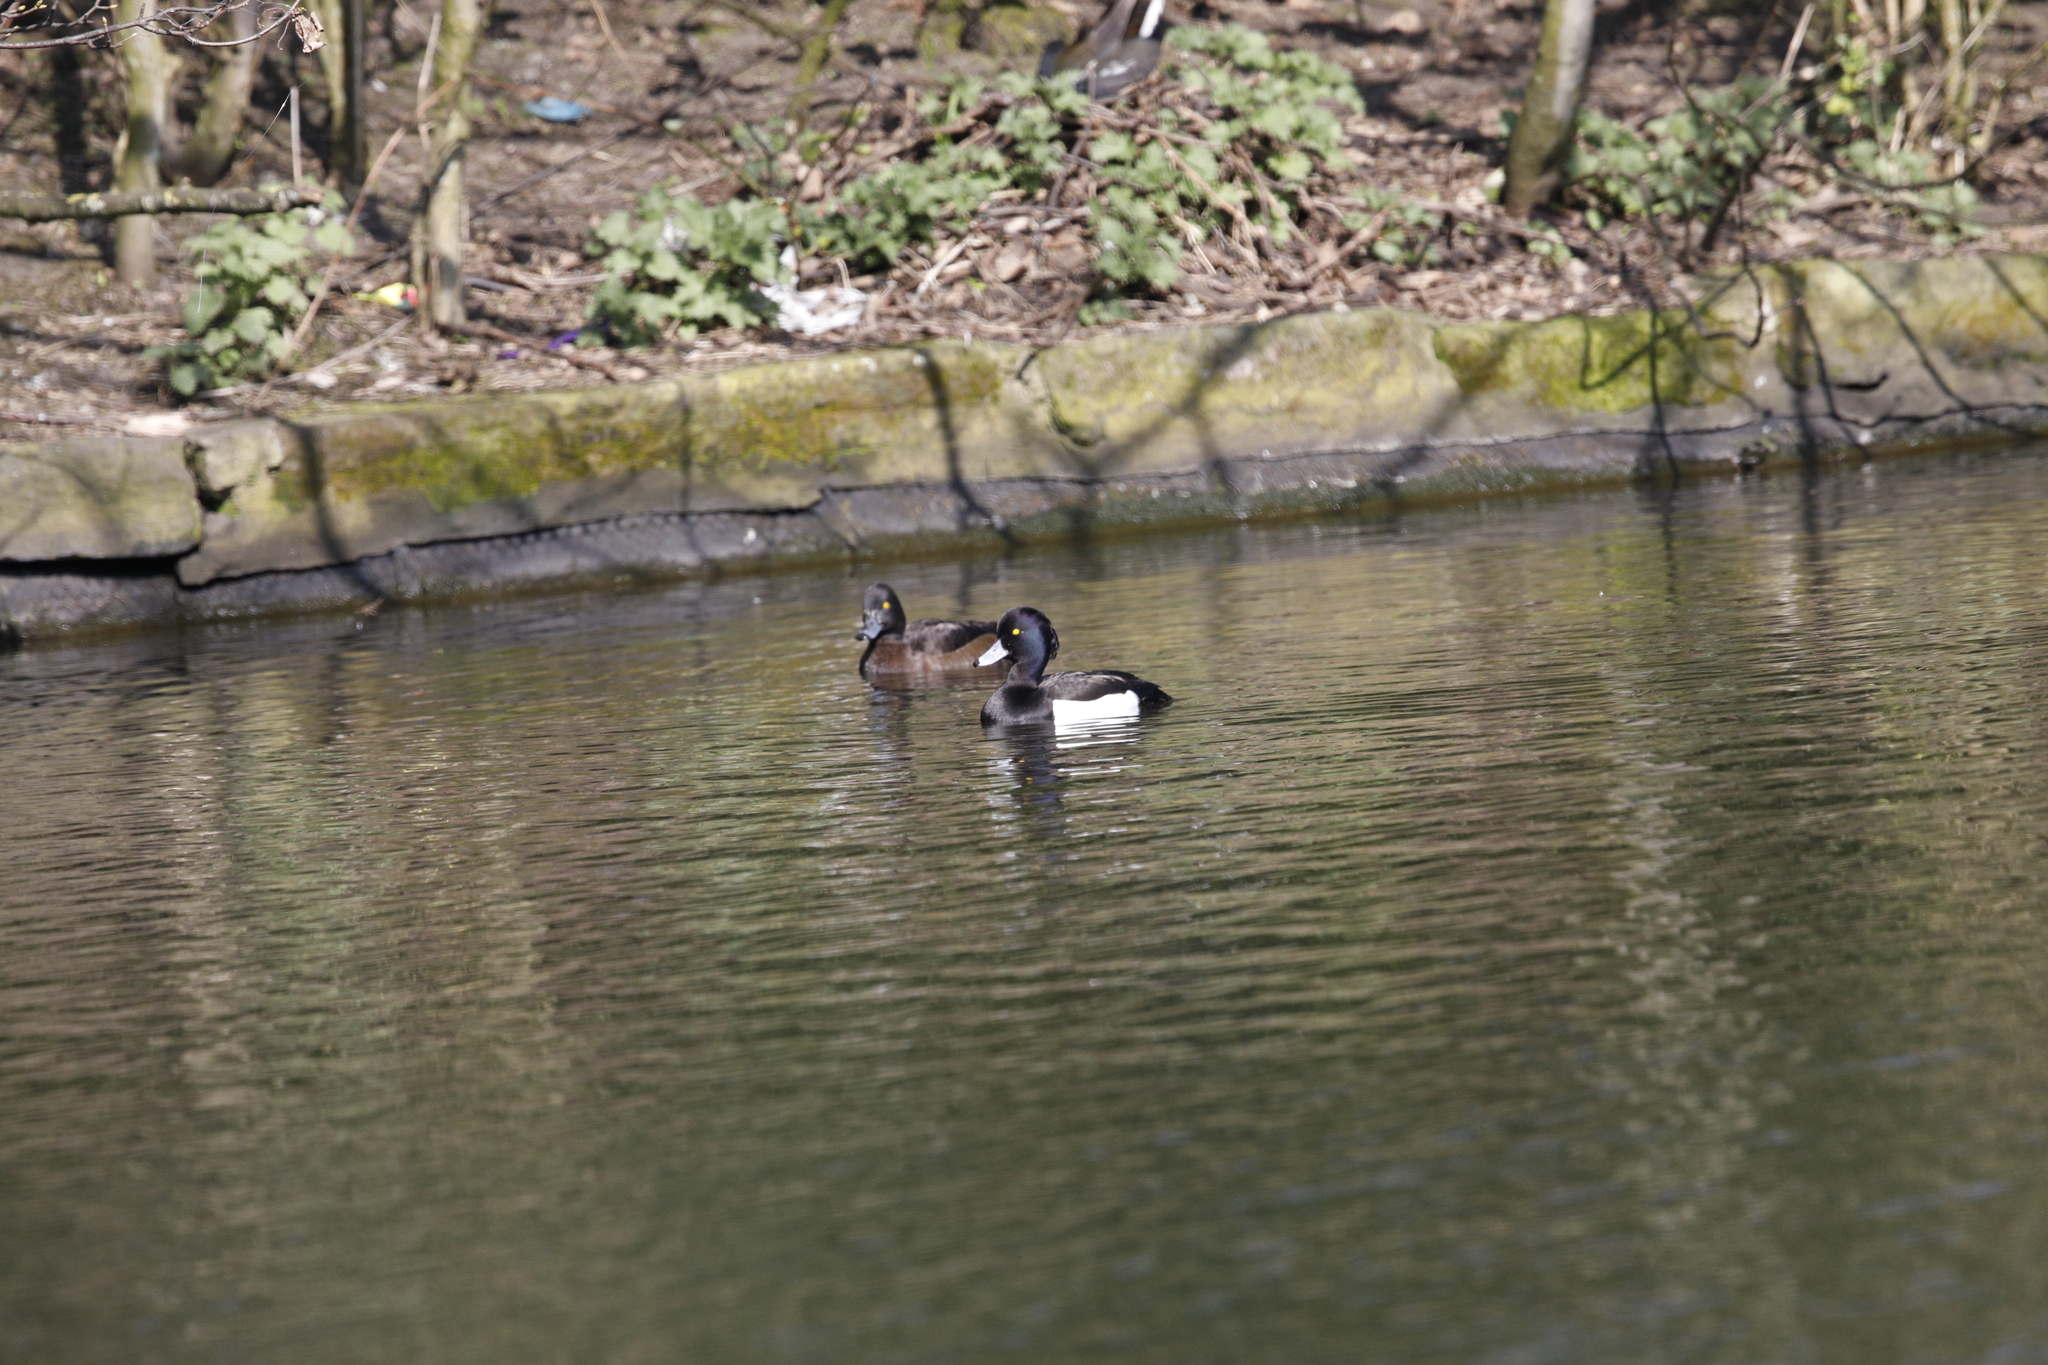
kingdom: Animalia
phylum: Chordata
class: Aves
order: Anseriformes
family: Anatidae
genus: Aythya
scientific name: Aythya fuligula
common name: Tufted duck
